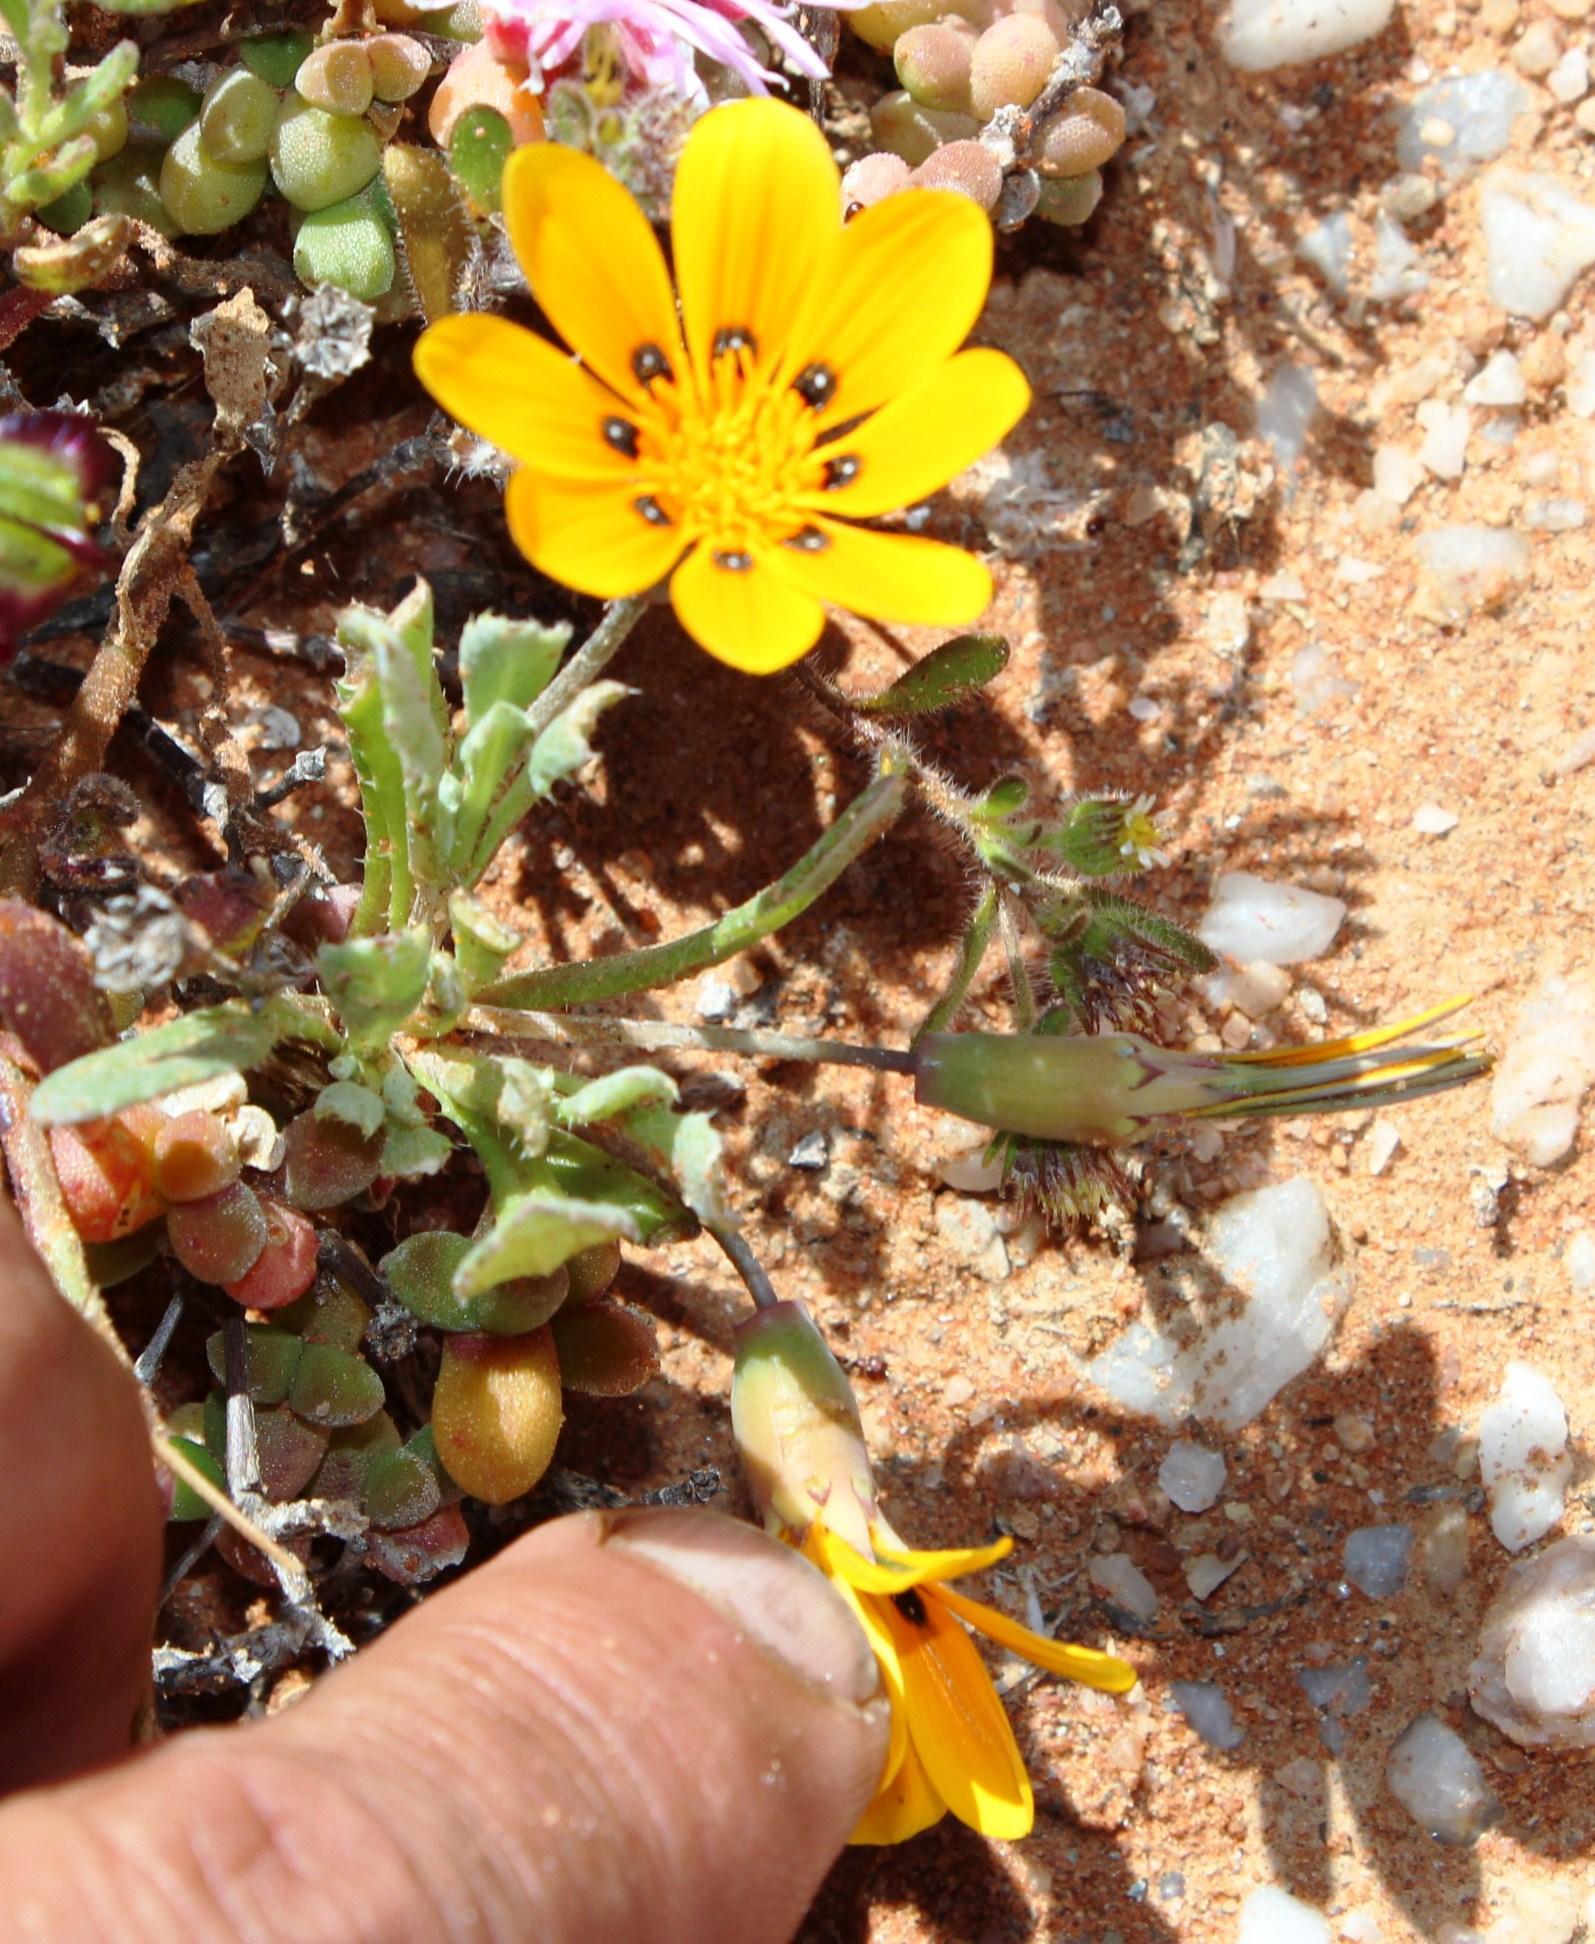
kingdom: Plantae
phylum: Tracheophyta
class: Magnoliopsida
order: Asterales
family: Asteraceae
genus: Gazania
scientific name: Gazania lichtensteinii
